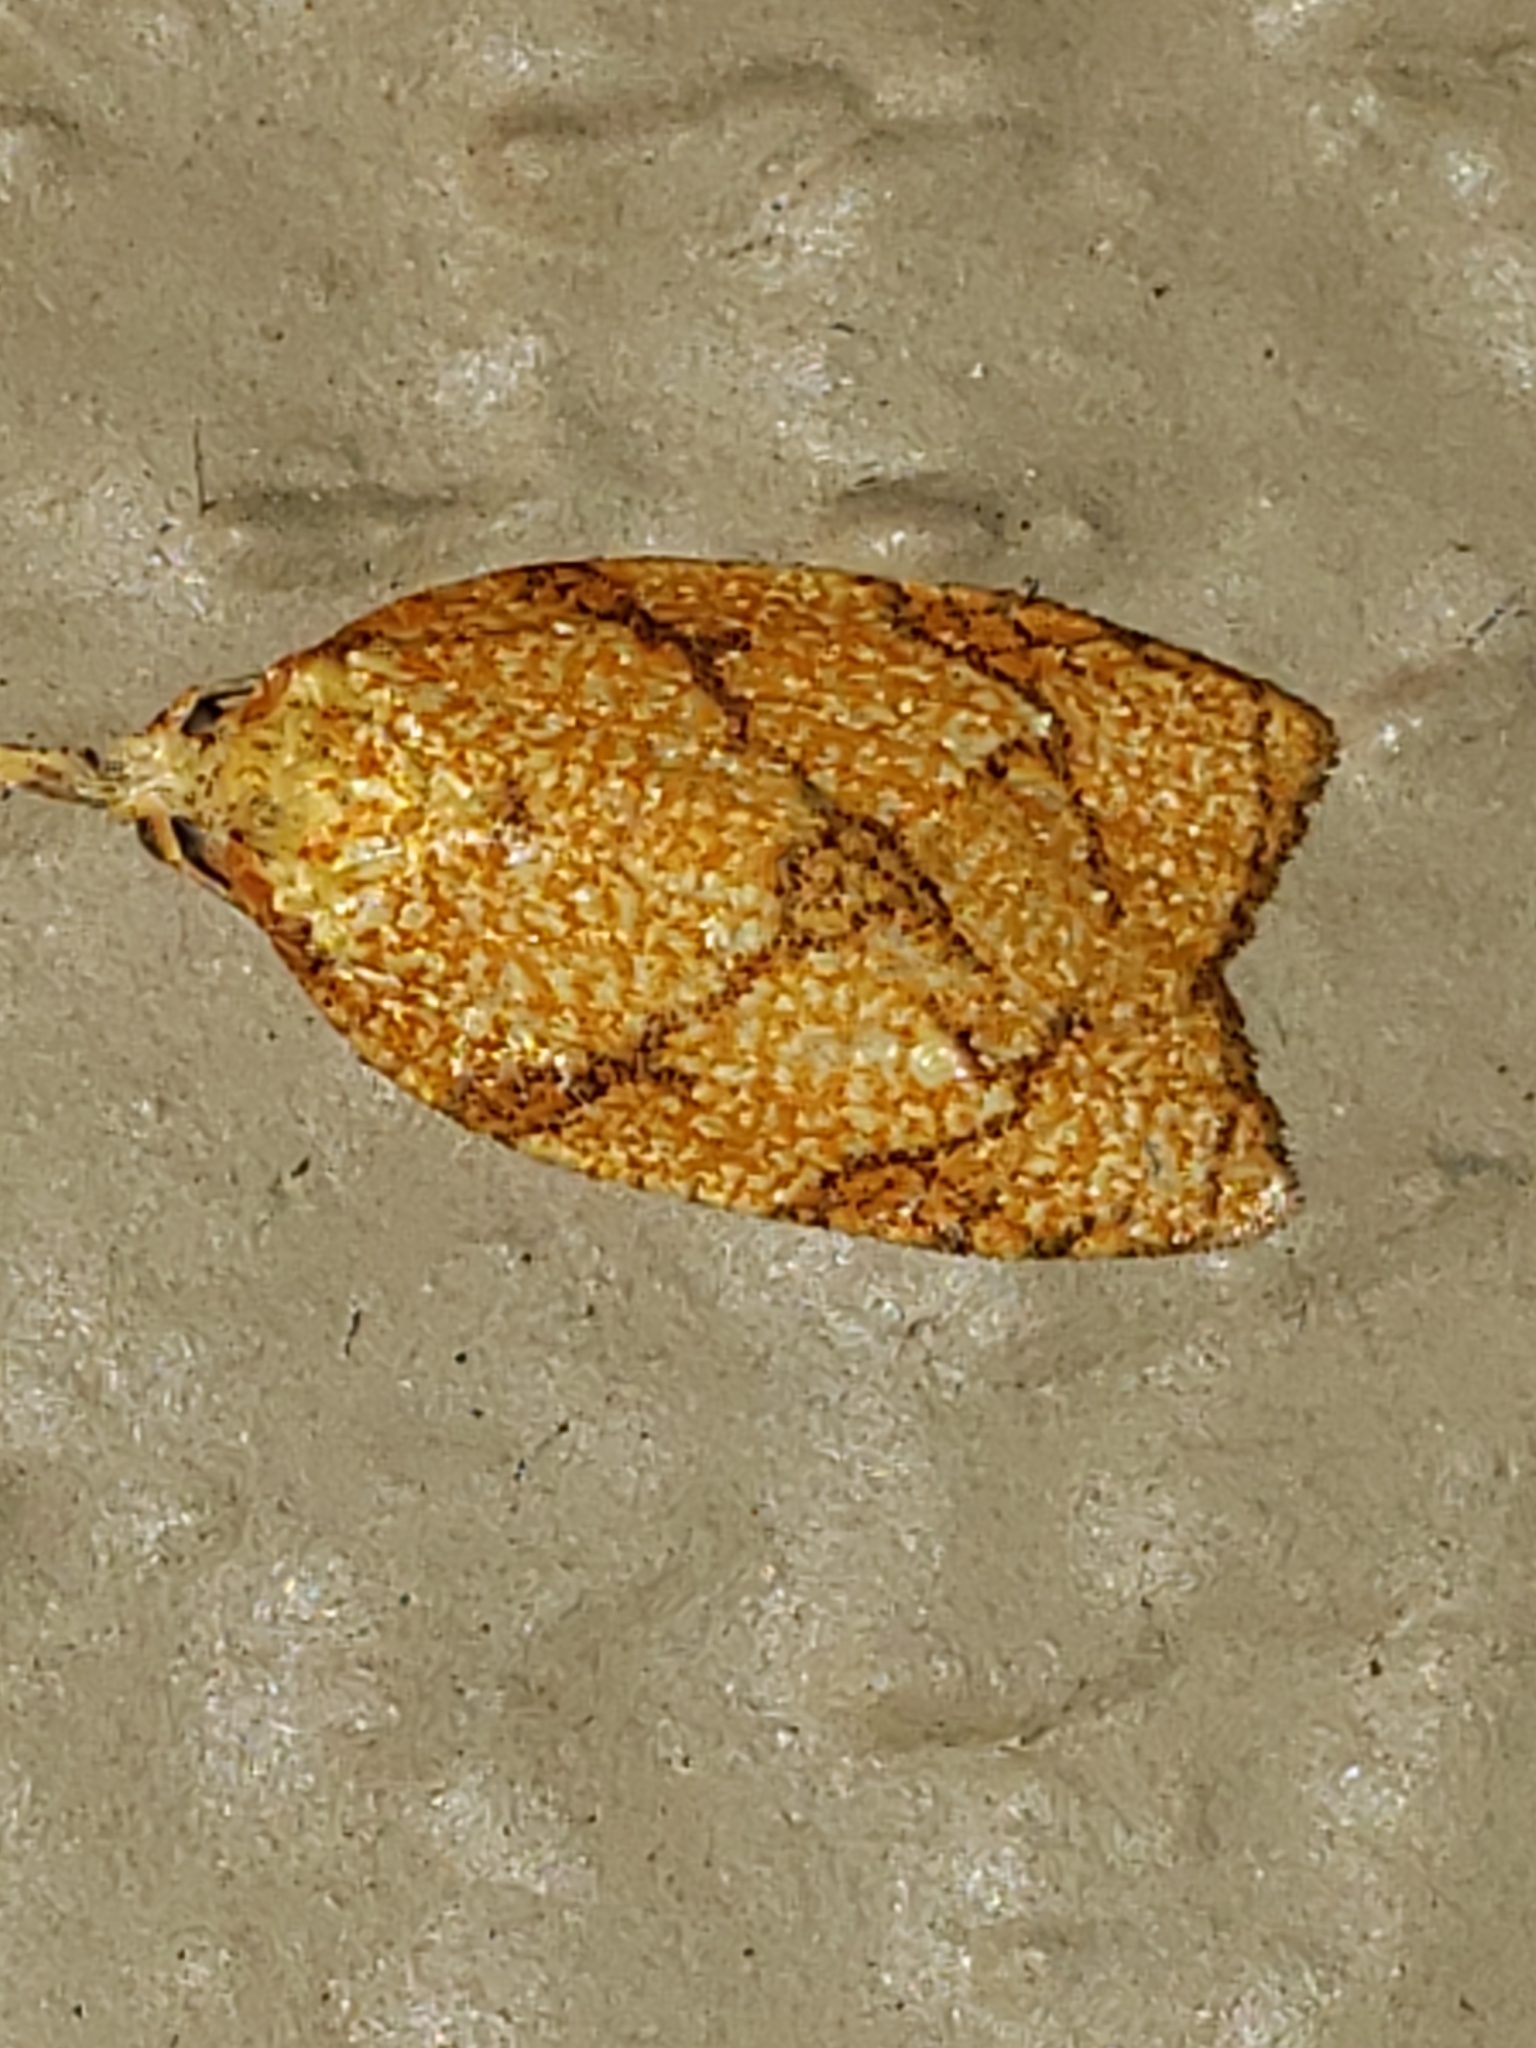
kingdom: Animalia
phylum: Arthropoda
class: Insecta
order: Lepidoptera
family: Tortricidae
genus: Cenopis
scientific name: Cenopis reticulatana
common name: Reticulated fruitworm moth
